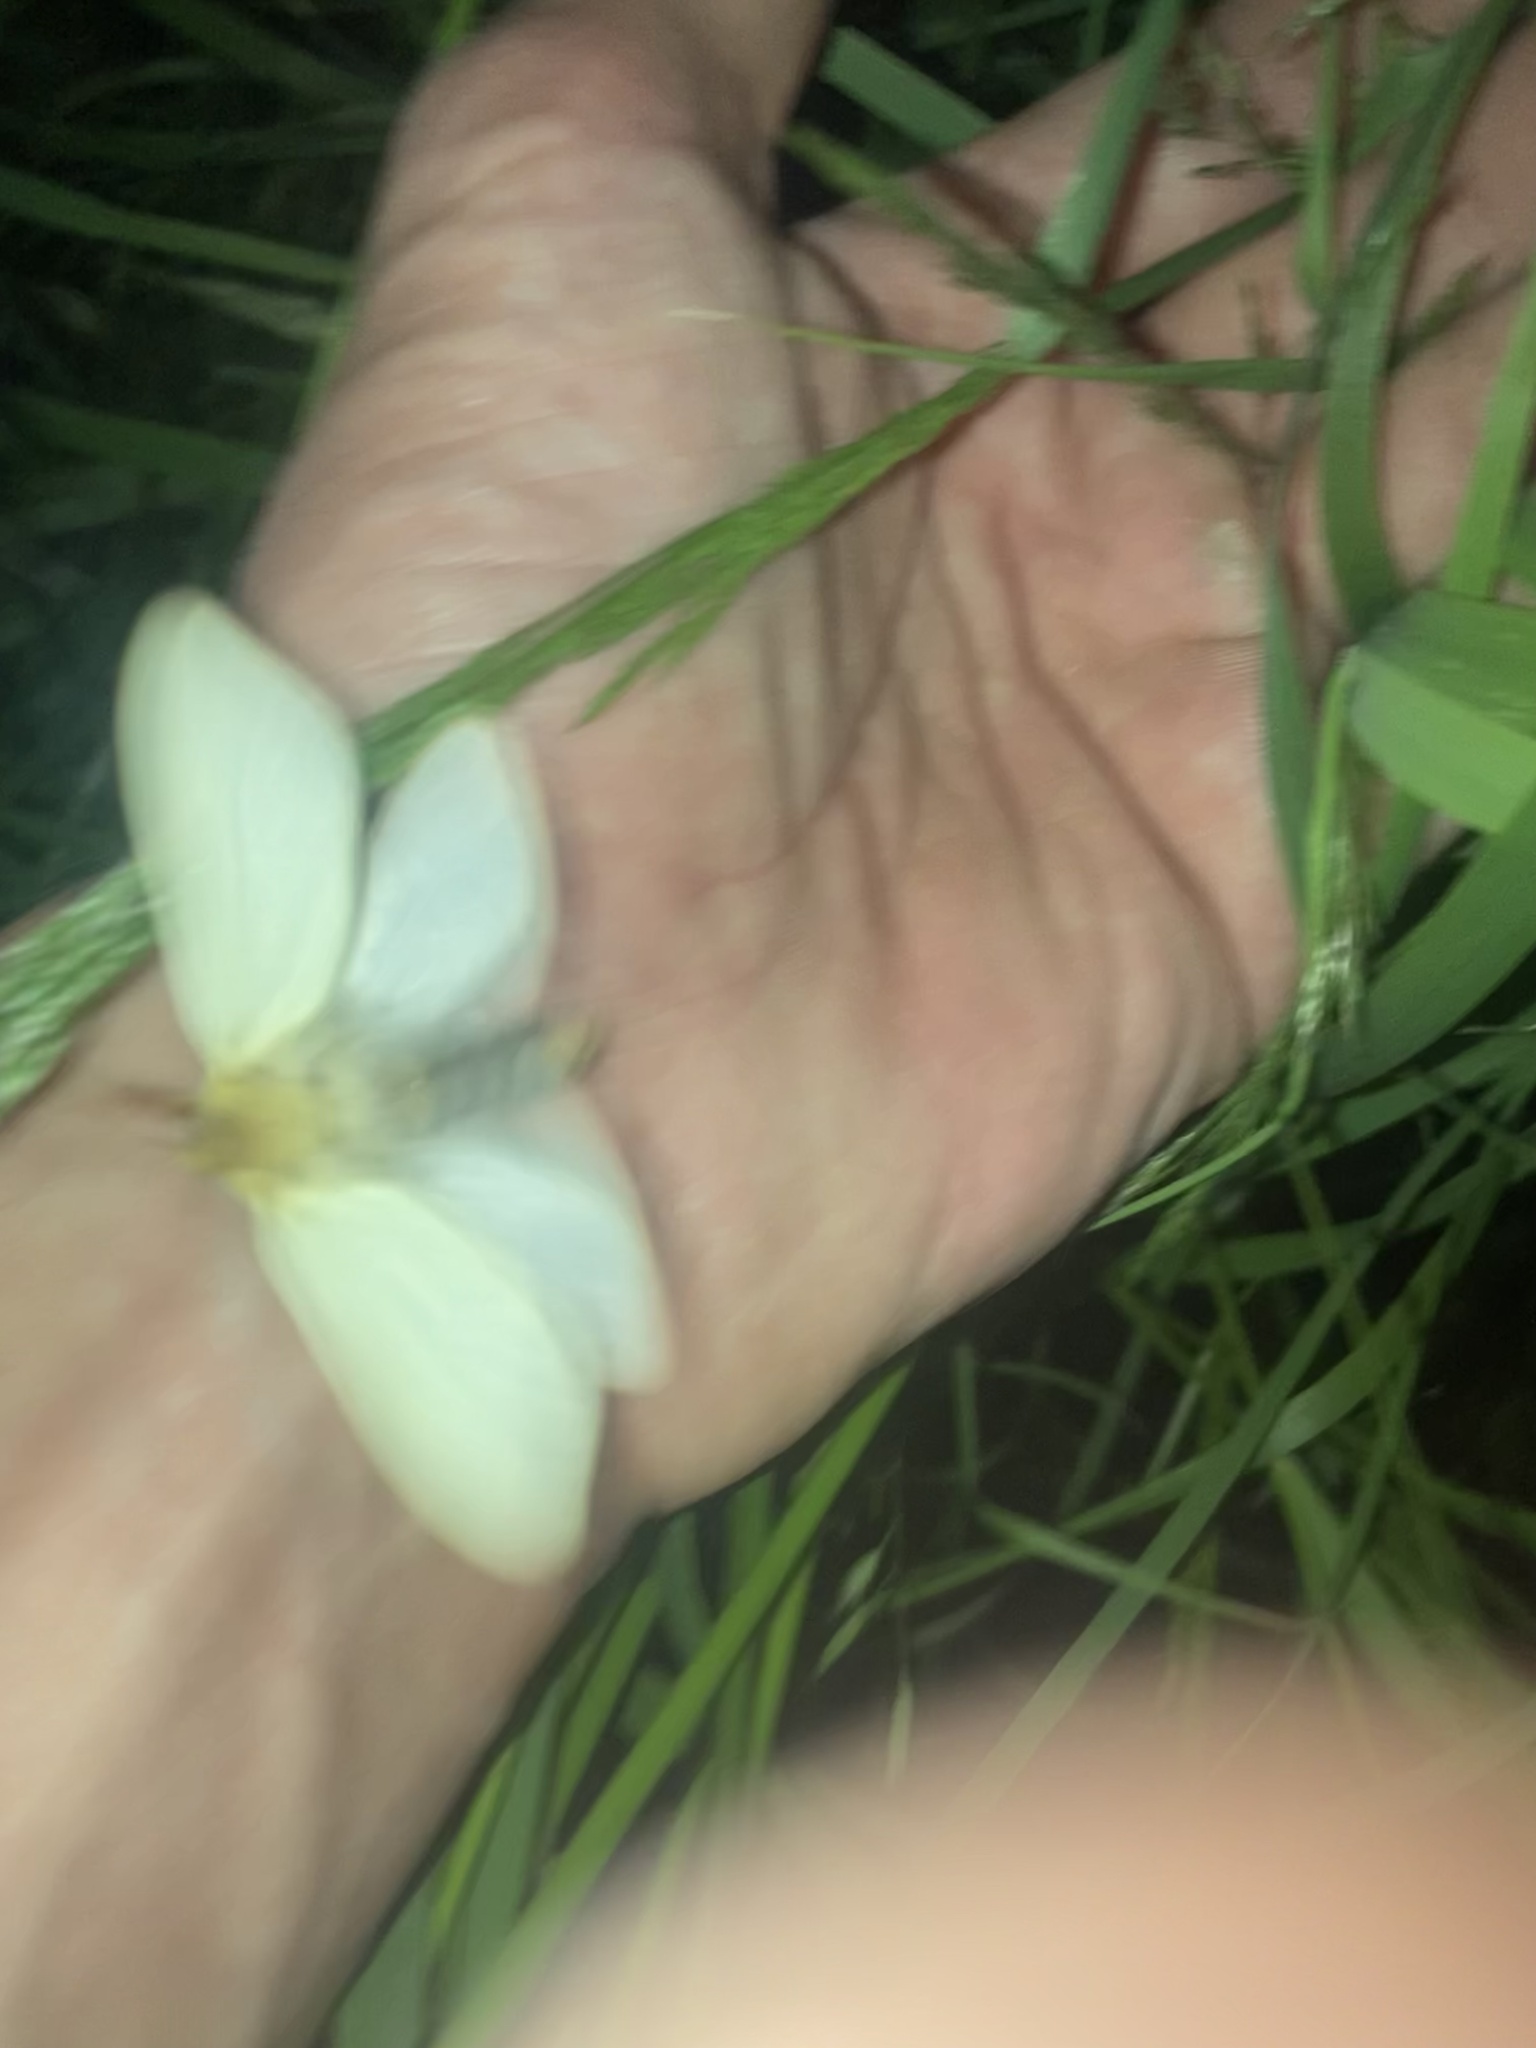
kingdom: Animalia
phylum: Arthropoda
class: Insecta
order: Lepidoptera
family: Hepialidae
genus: Hepialus
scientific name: Hepialus humuli
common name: Ghost moth
